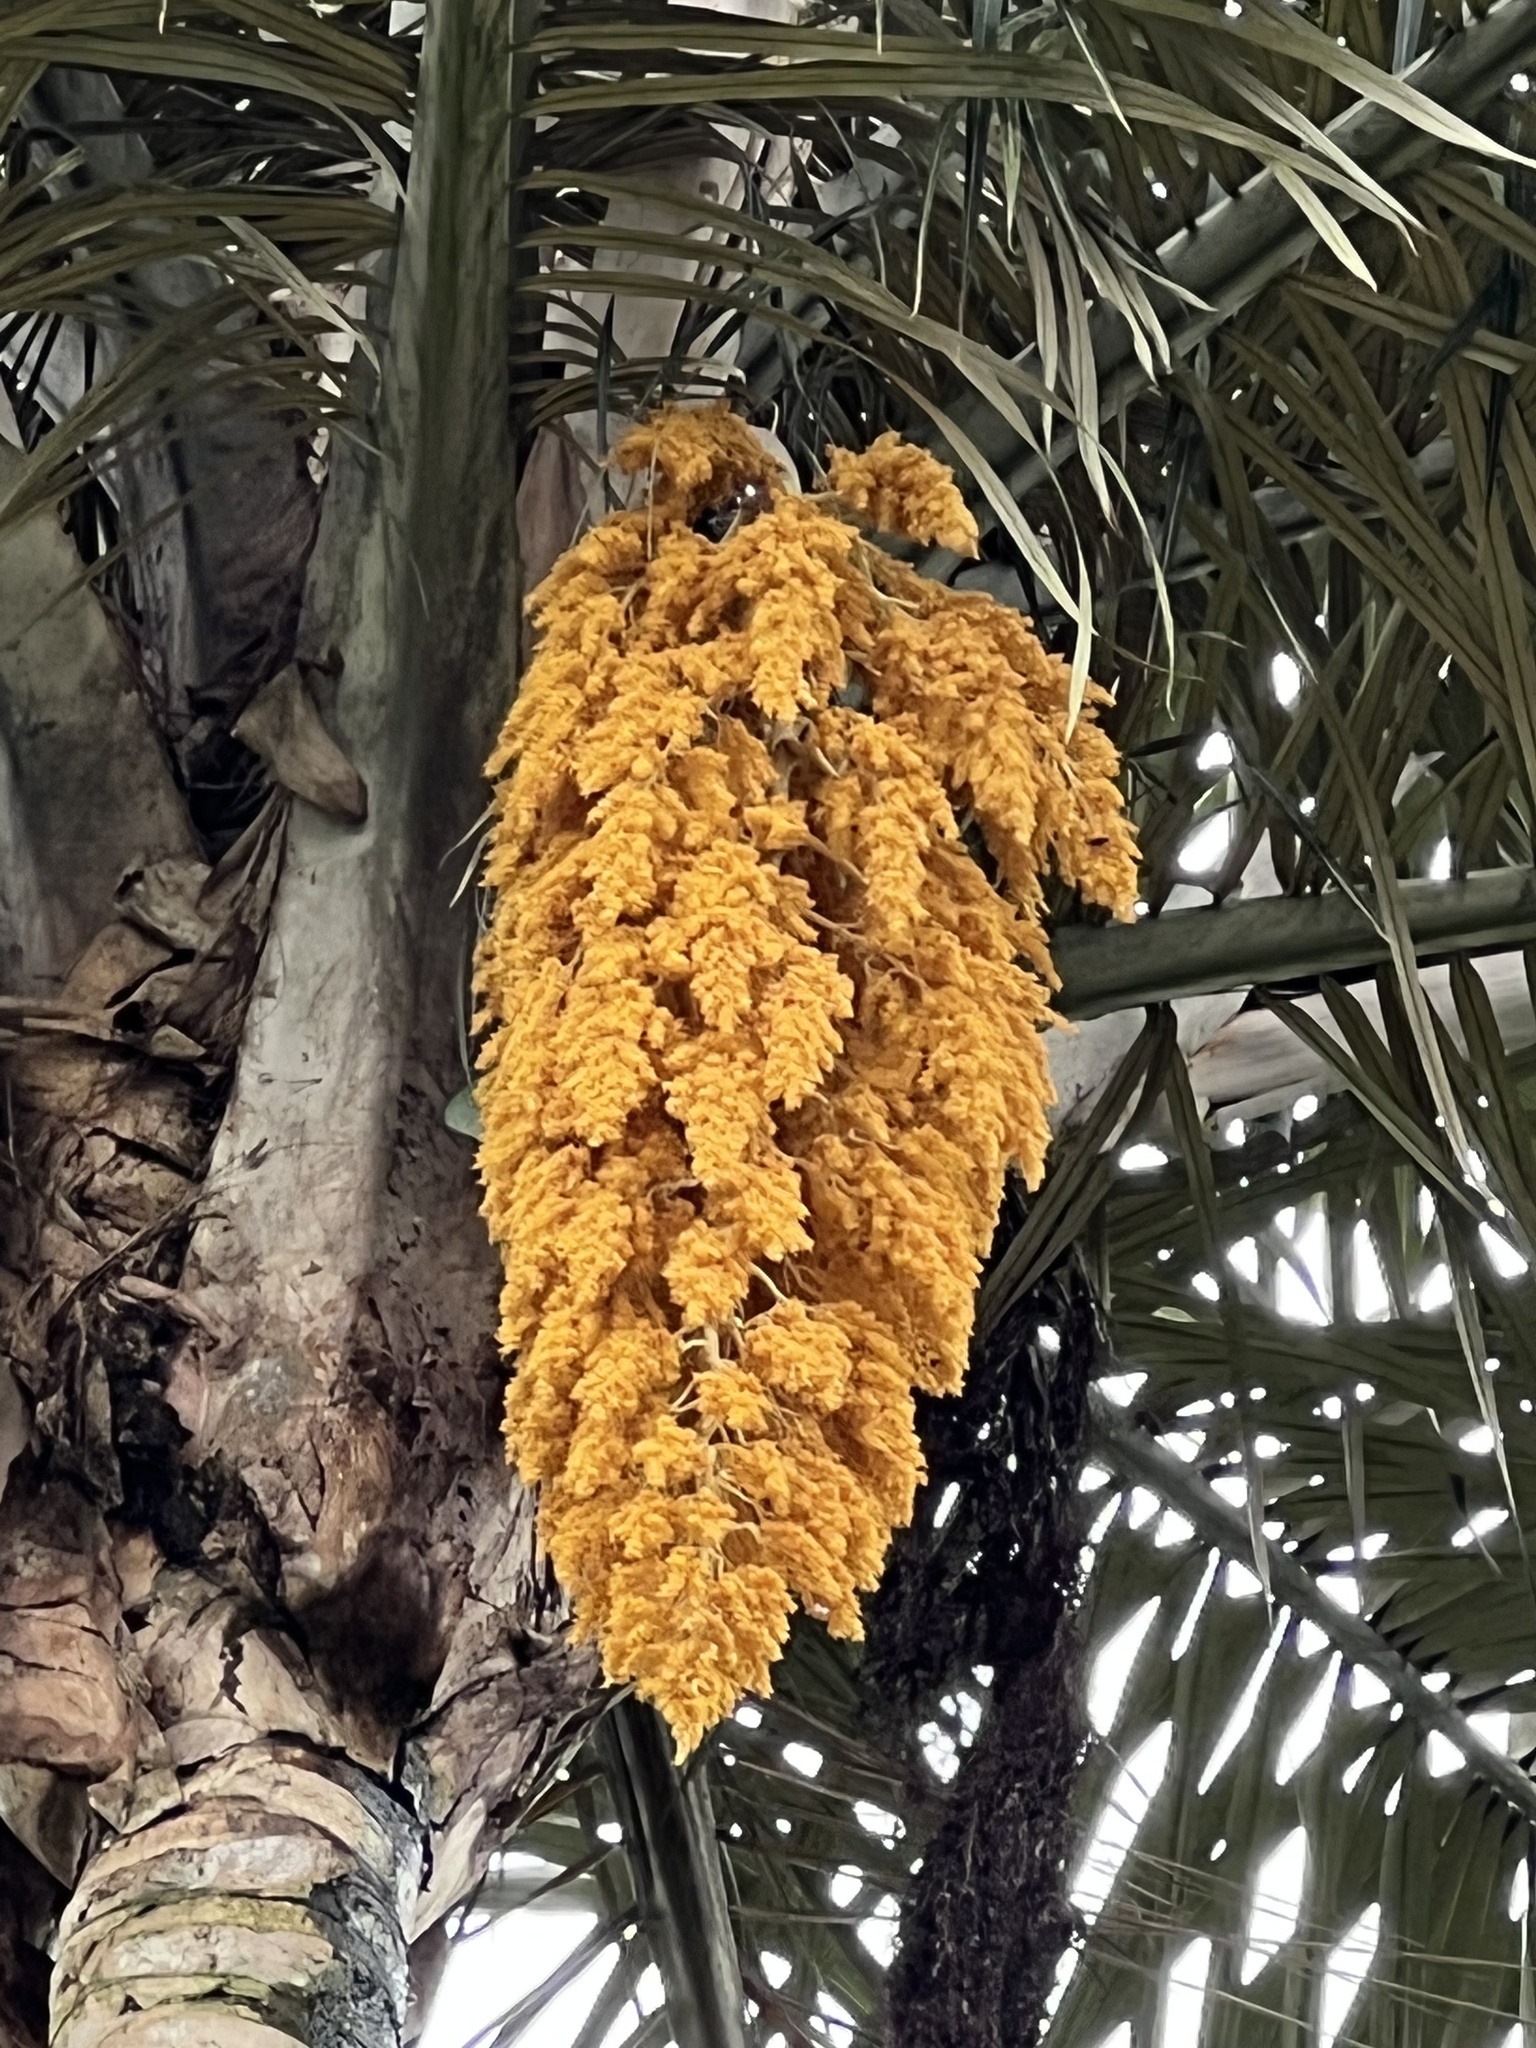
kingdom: Plantae
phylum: Tracheophyta
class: Liliopsida
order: Arecales
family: Arecaceae
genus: Ceroxylon
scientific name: Ceroxylon sasaimae
